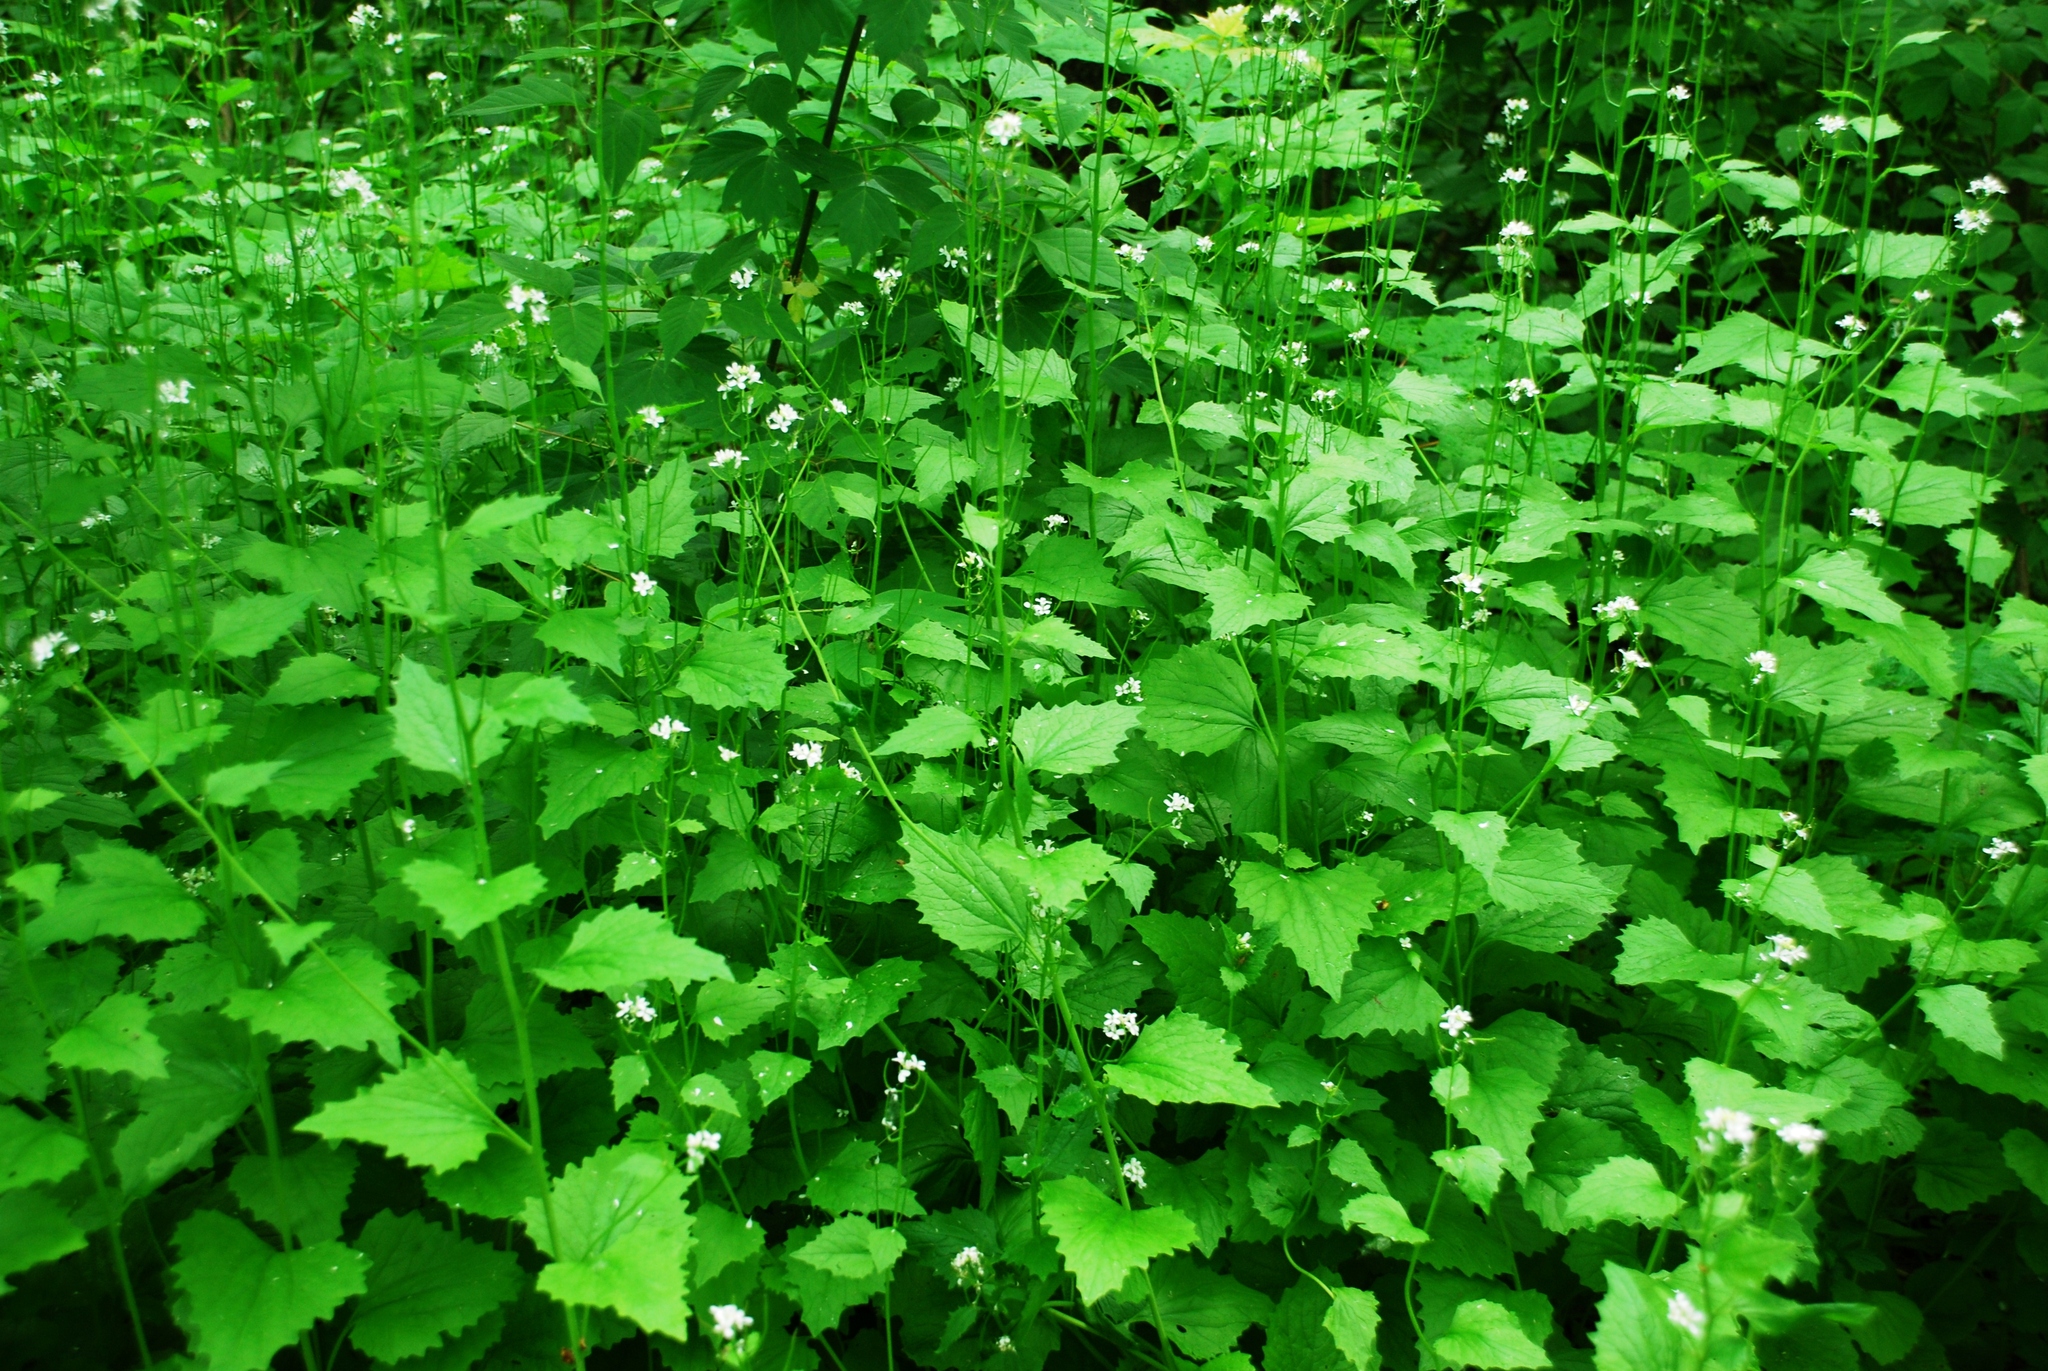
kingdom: Plantae
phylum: Tracheophyta
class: Magnoliopsida
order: Brassicales
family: Brassicaceae
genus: Alliaria
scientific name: Alliaria petiolata
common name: Garlic mustard
